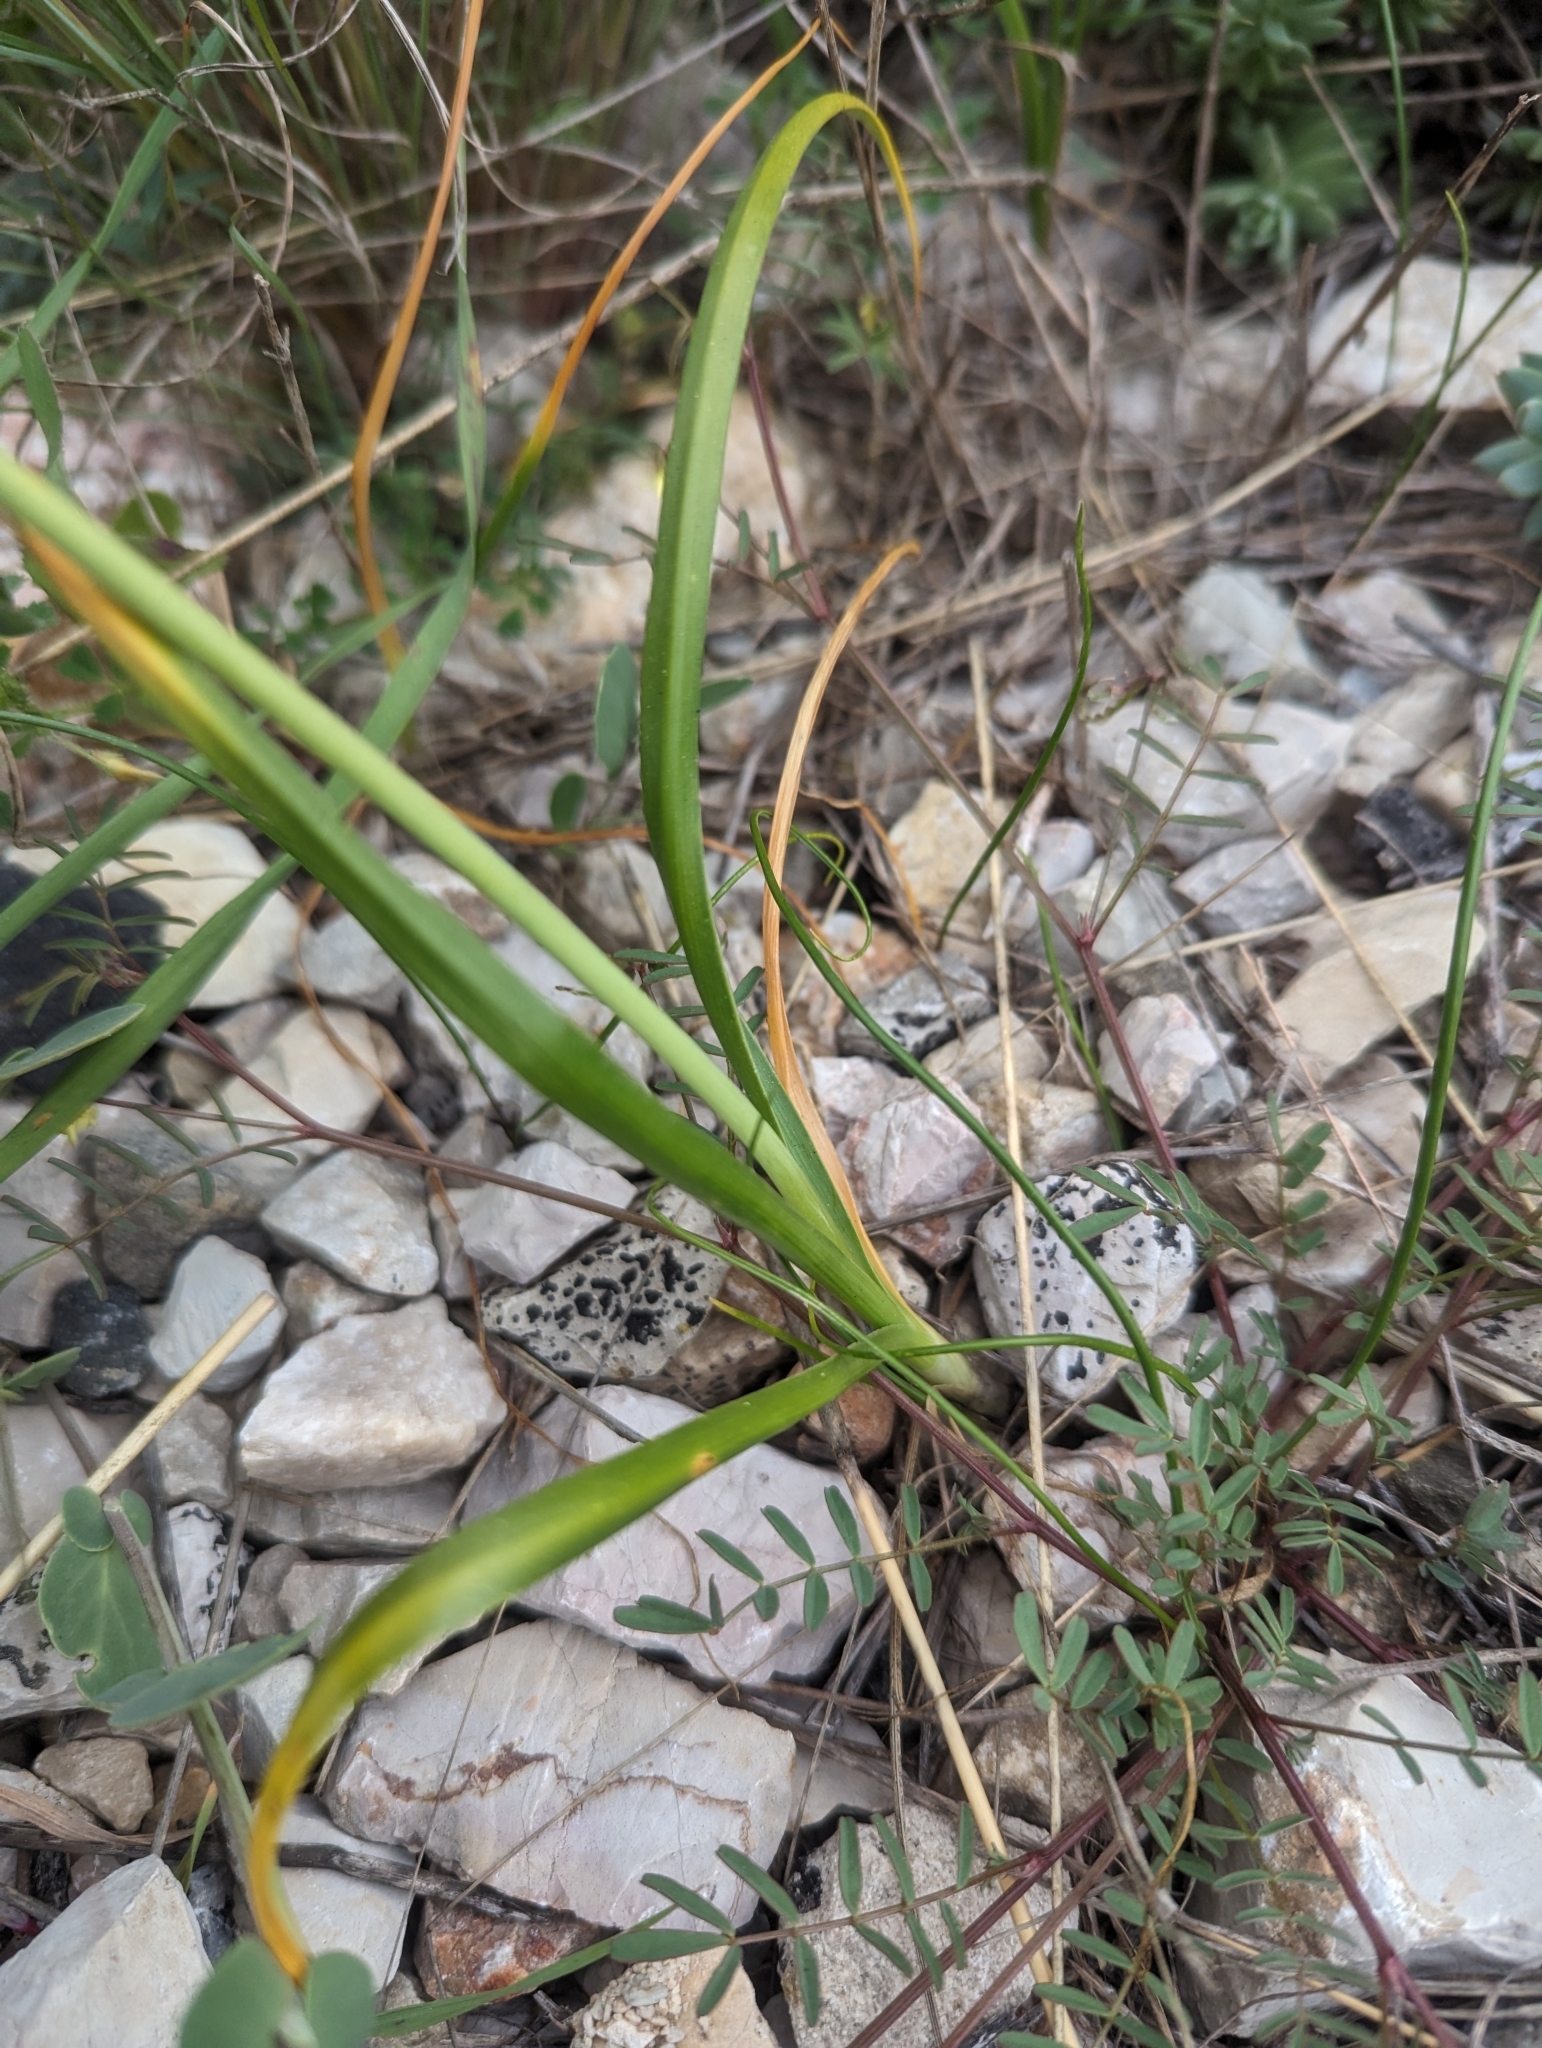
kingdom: Plantae
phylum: Tracheophyta
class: Liliopsida
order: Asparagales
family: Amaryllidaceae
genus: Allium
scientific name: Allium roseum
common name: Rosy garlic
